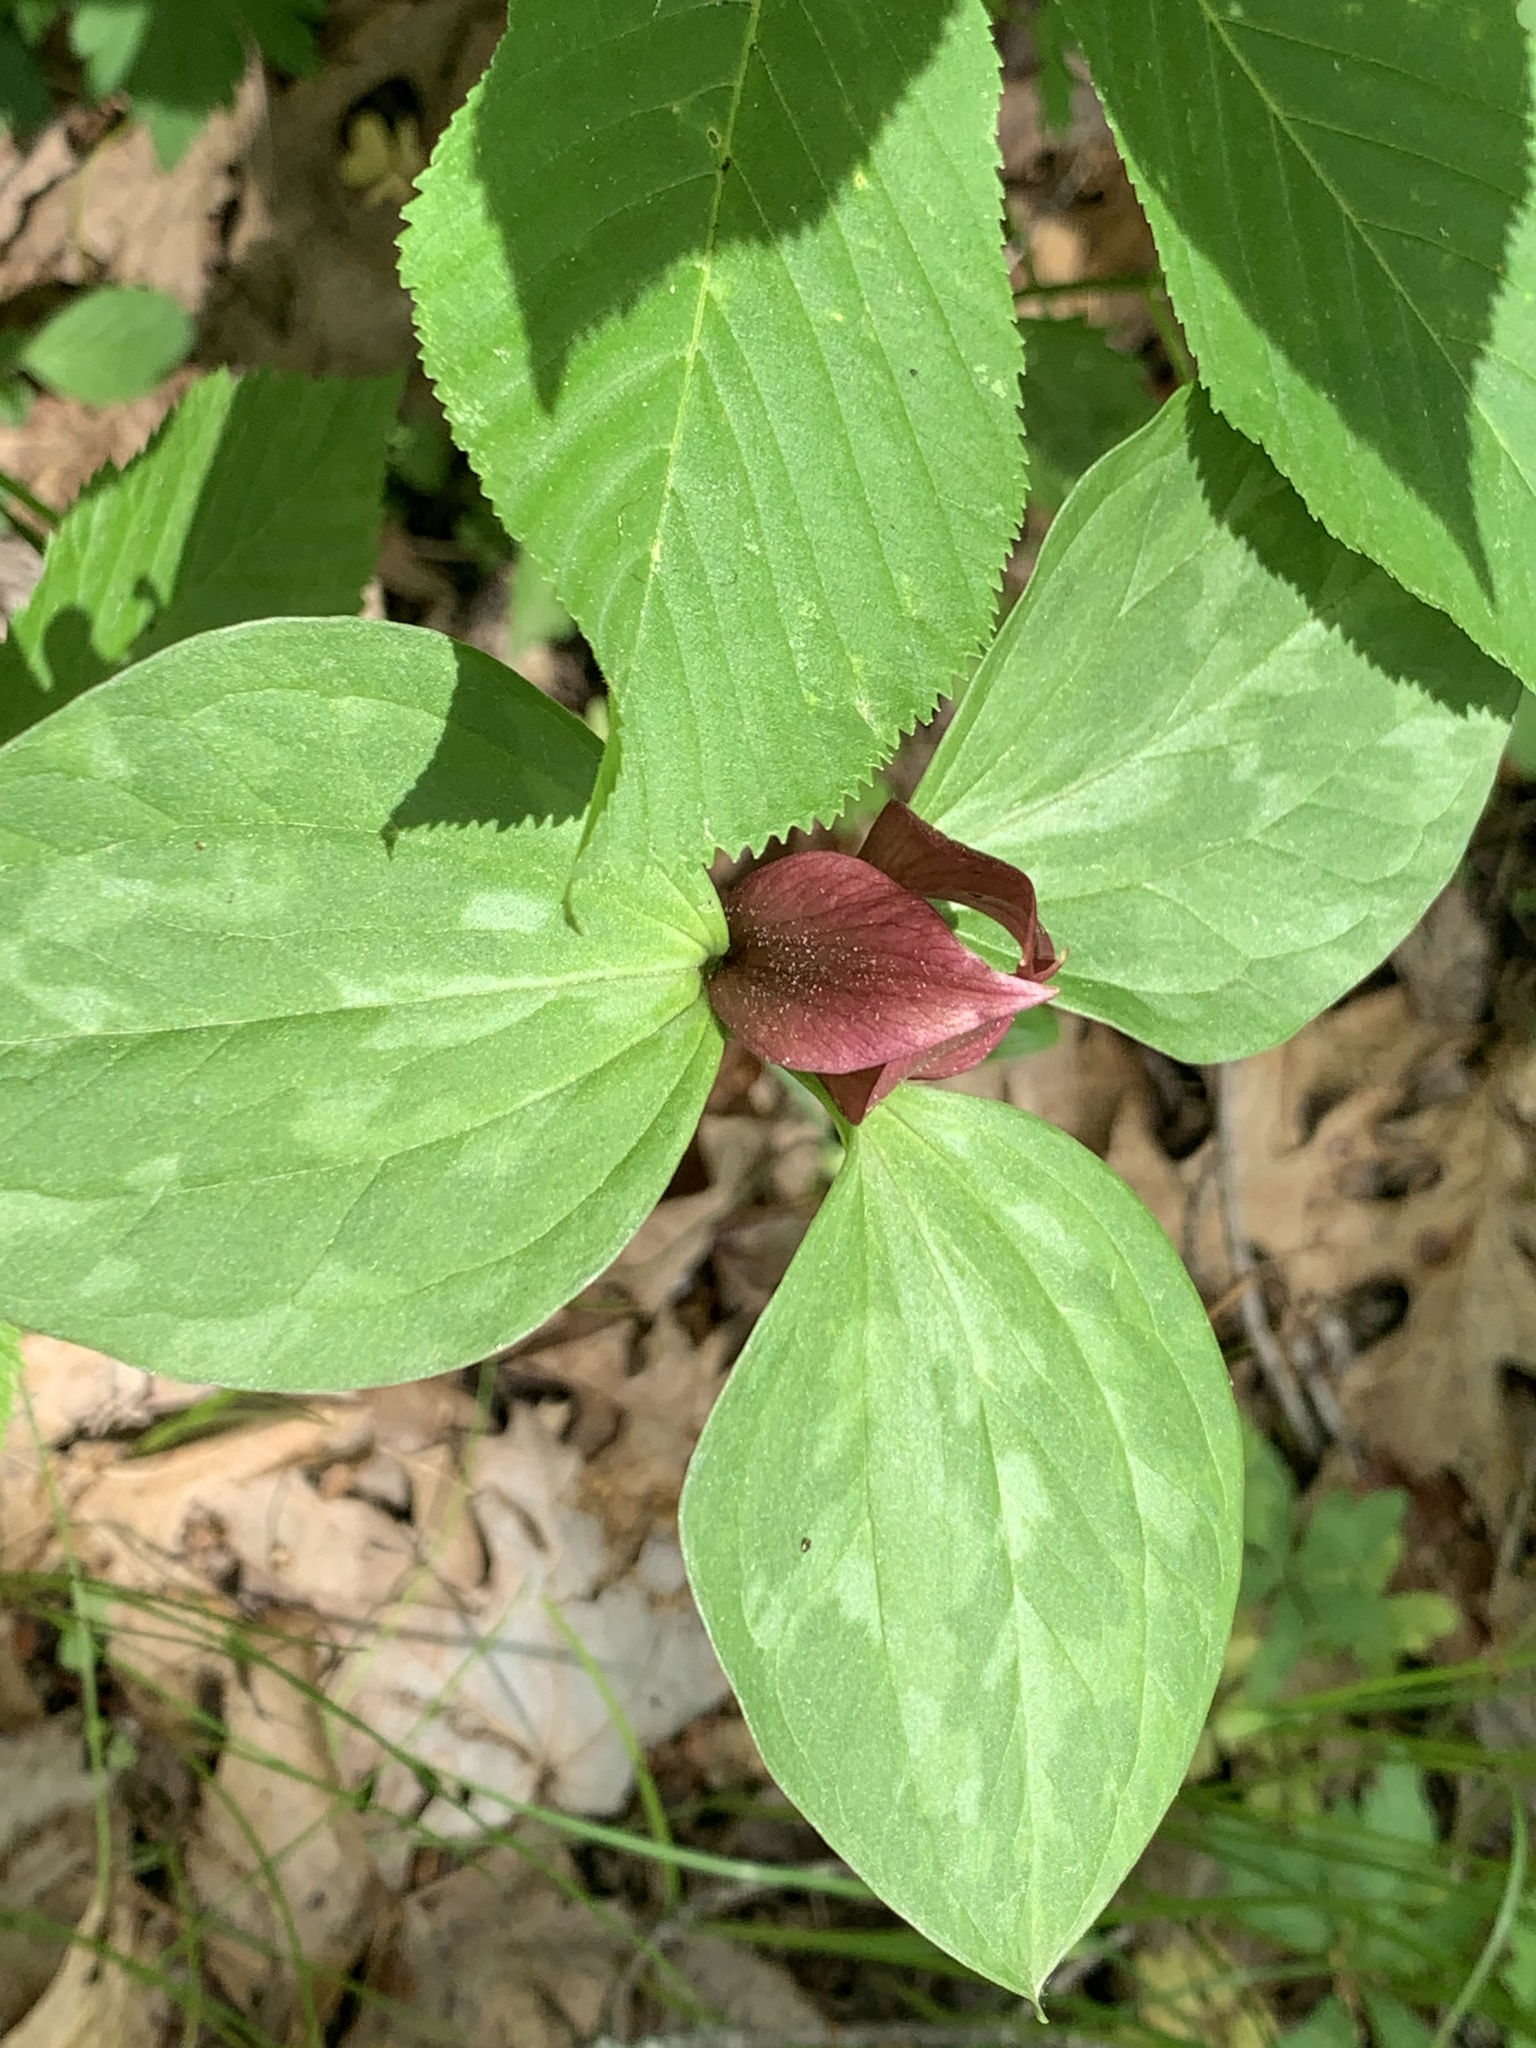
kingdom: Plantae
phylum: Tracheophyta
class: Liliopsida
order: Liliales
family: Melanthiaceae
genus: Trillium
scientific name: Trillium recurvatum
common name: Bloody butcher
